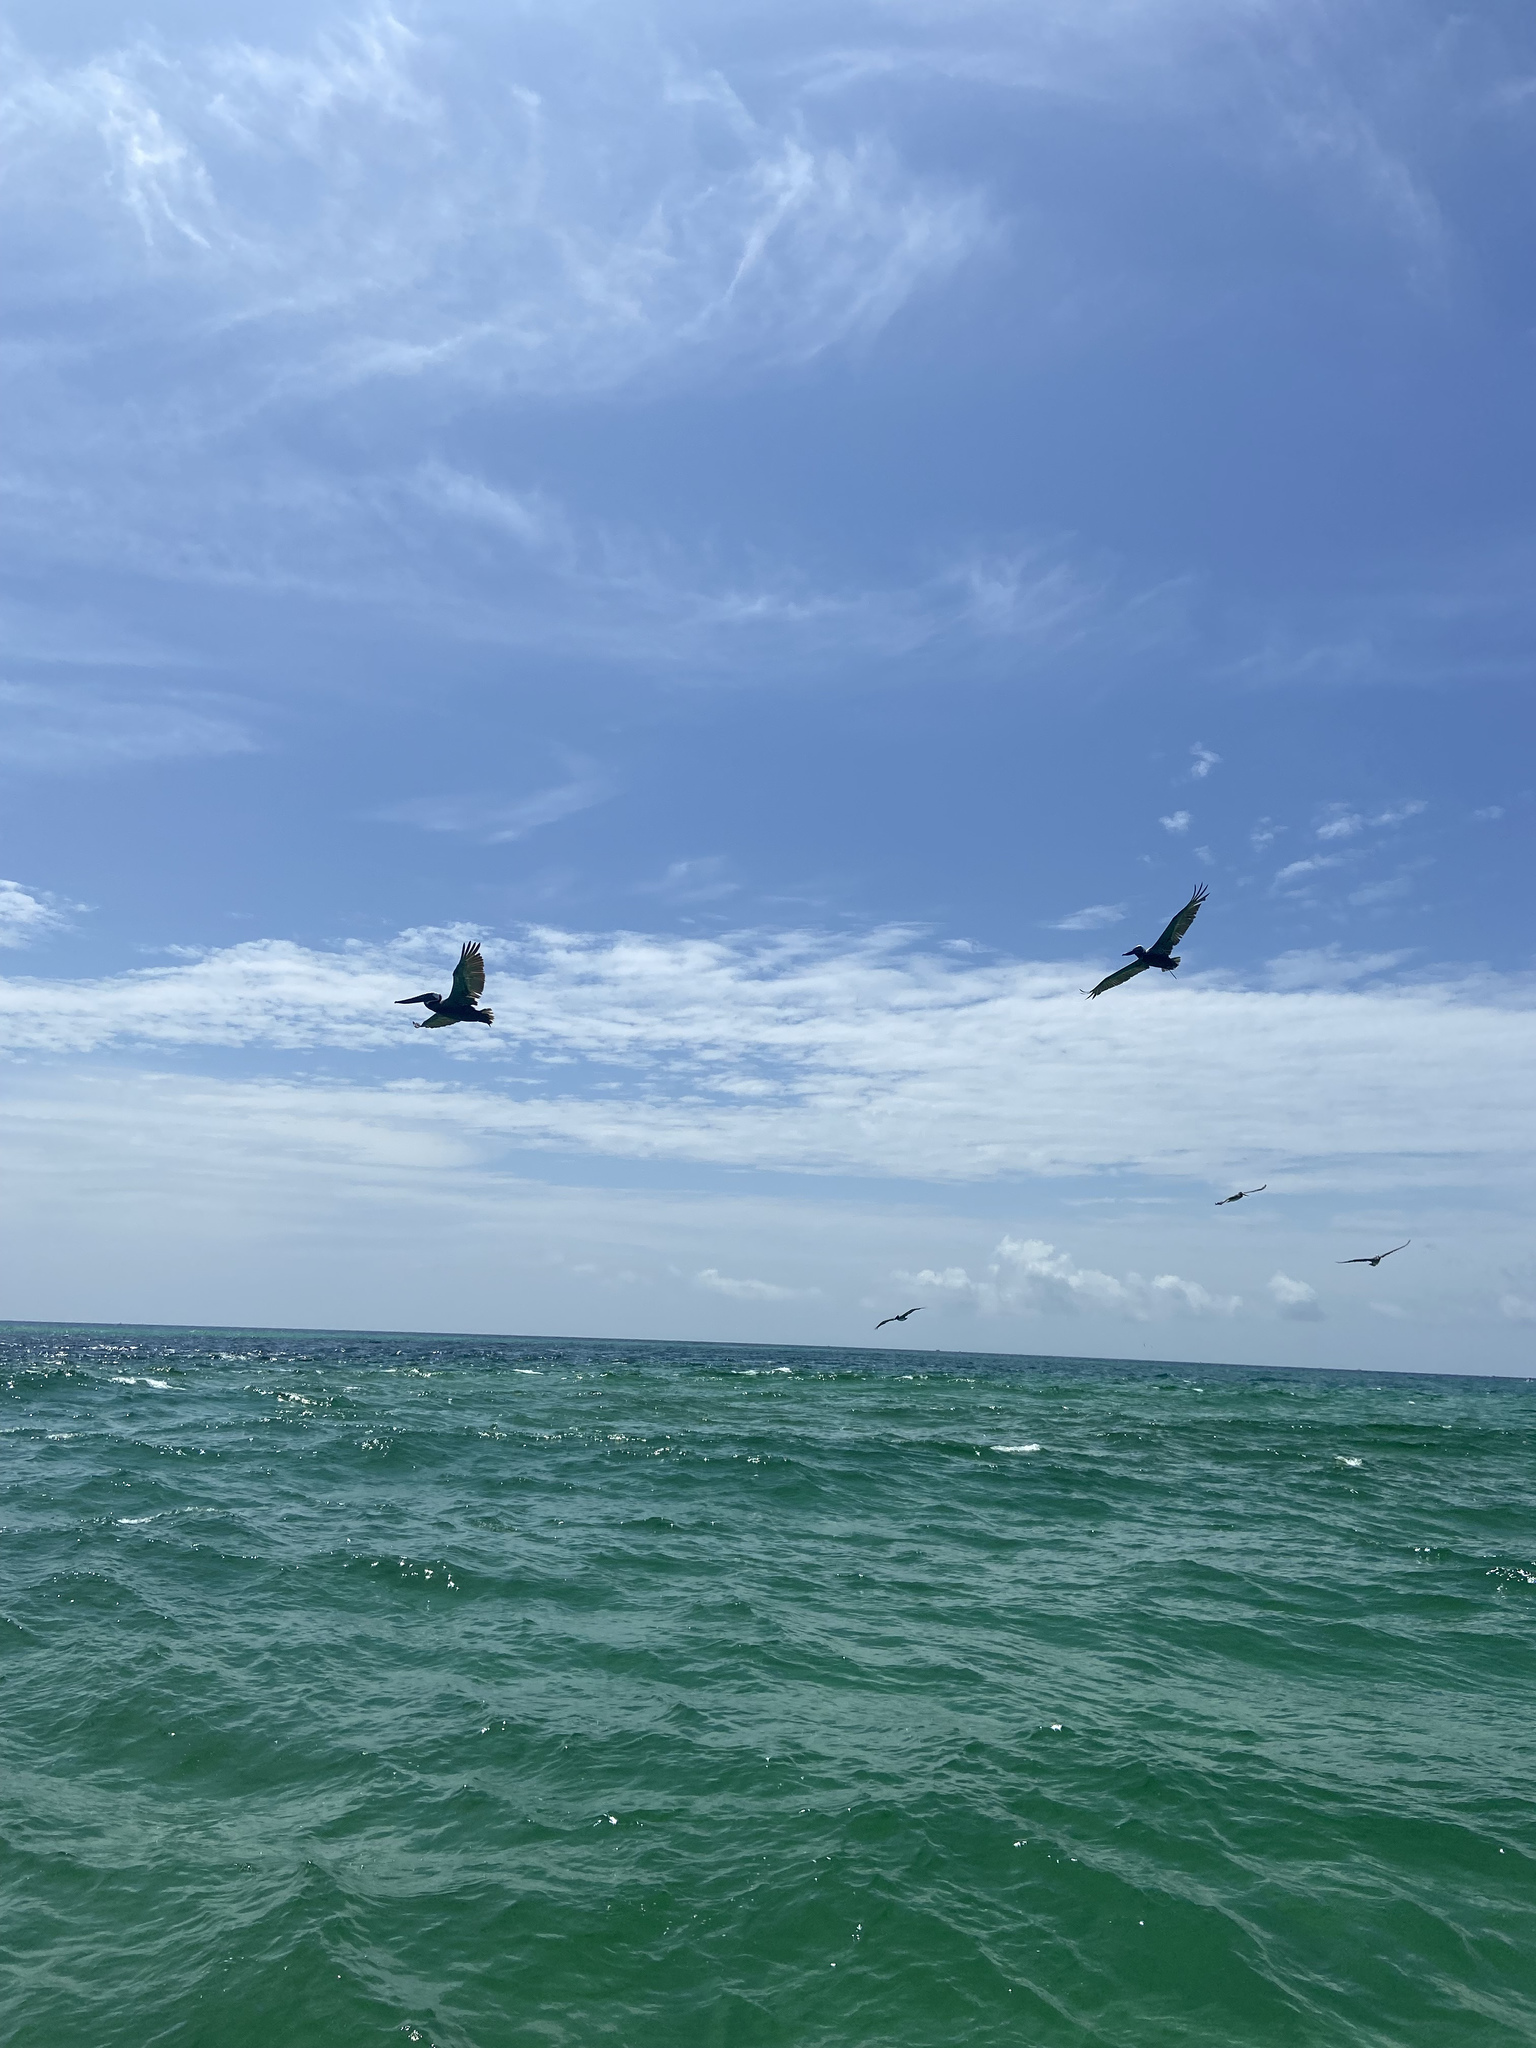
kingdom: Animalia
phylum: Chordata
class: Aves
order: Pelecaniformes
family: Pelecanidae
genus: Pelecanus
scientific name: Pelecanus occidentalis
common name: Brown pelican
